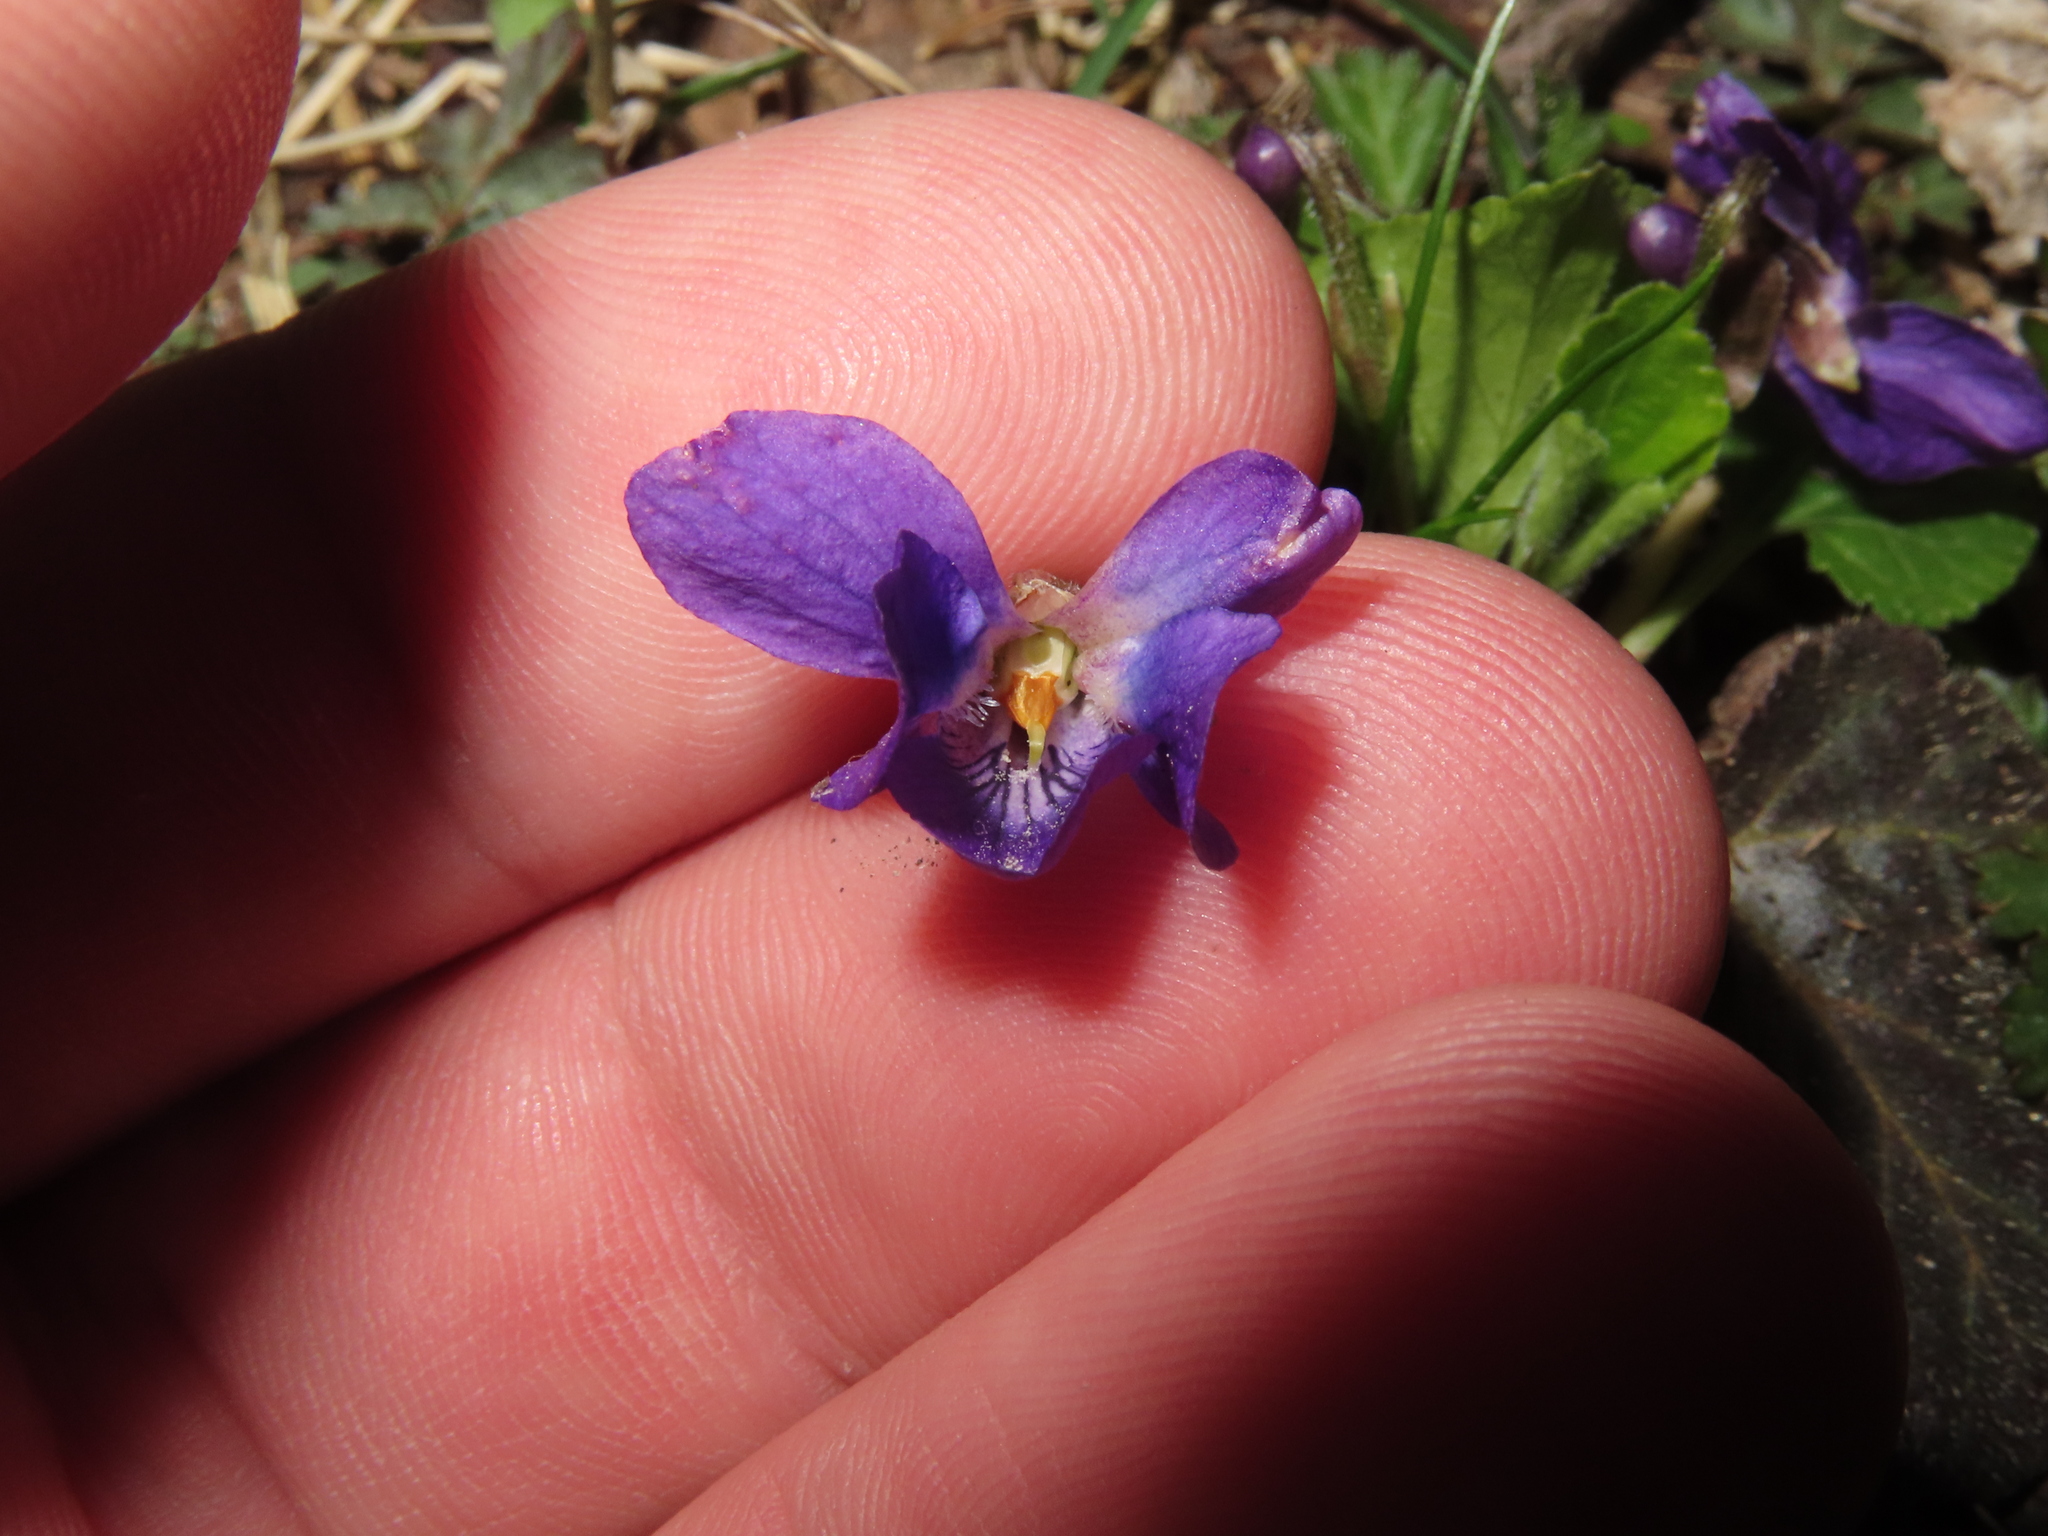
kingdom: Plantae
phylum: Tracheophyta
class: Magnoliopsida
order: Malpighiales
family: Violaceae
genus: Viola
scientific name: Viola odorata
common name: Sweet violet
